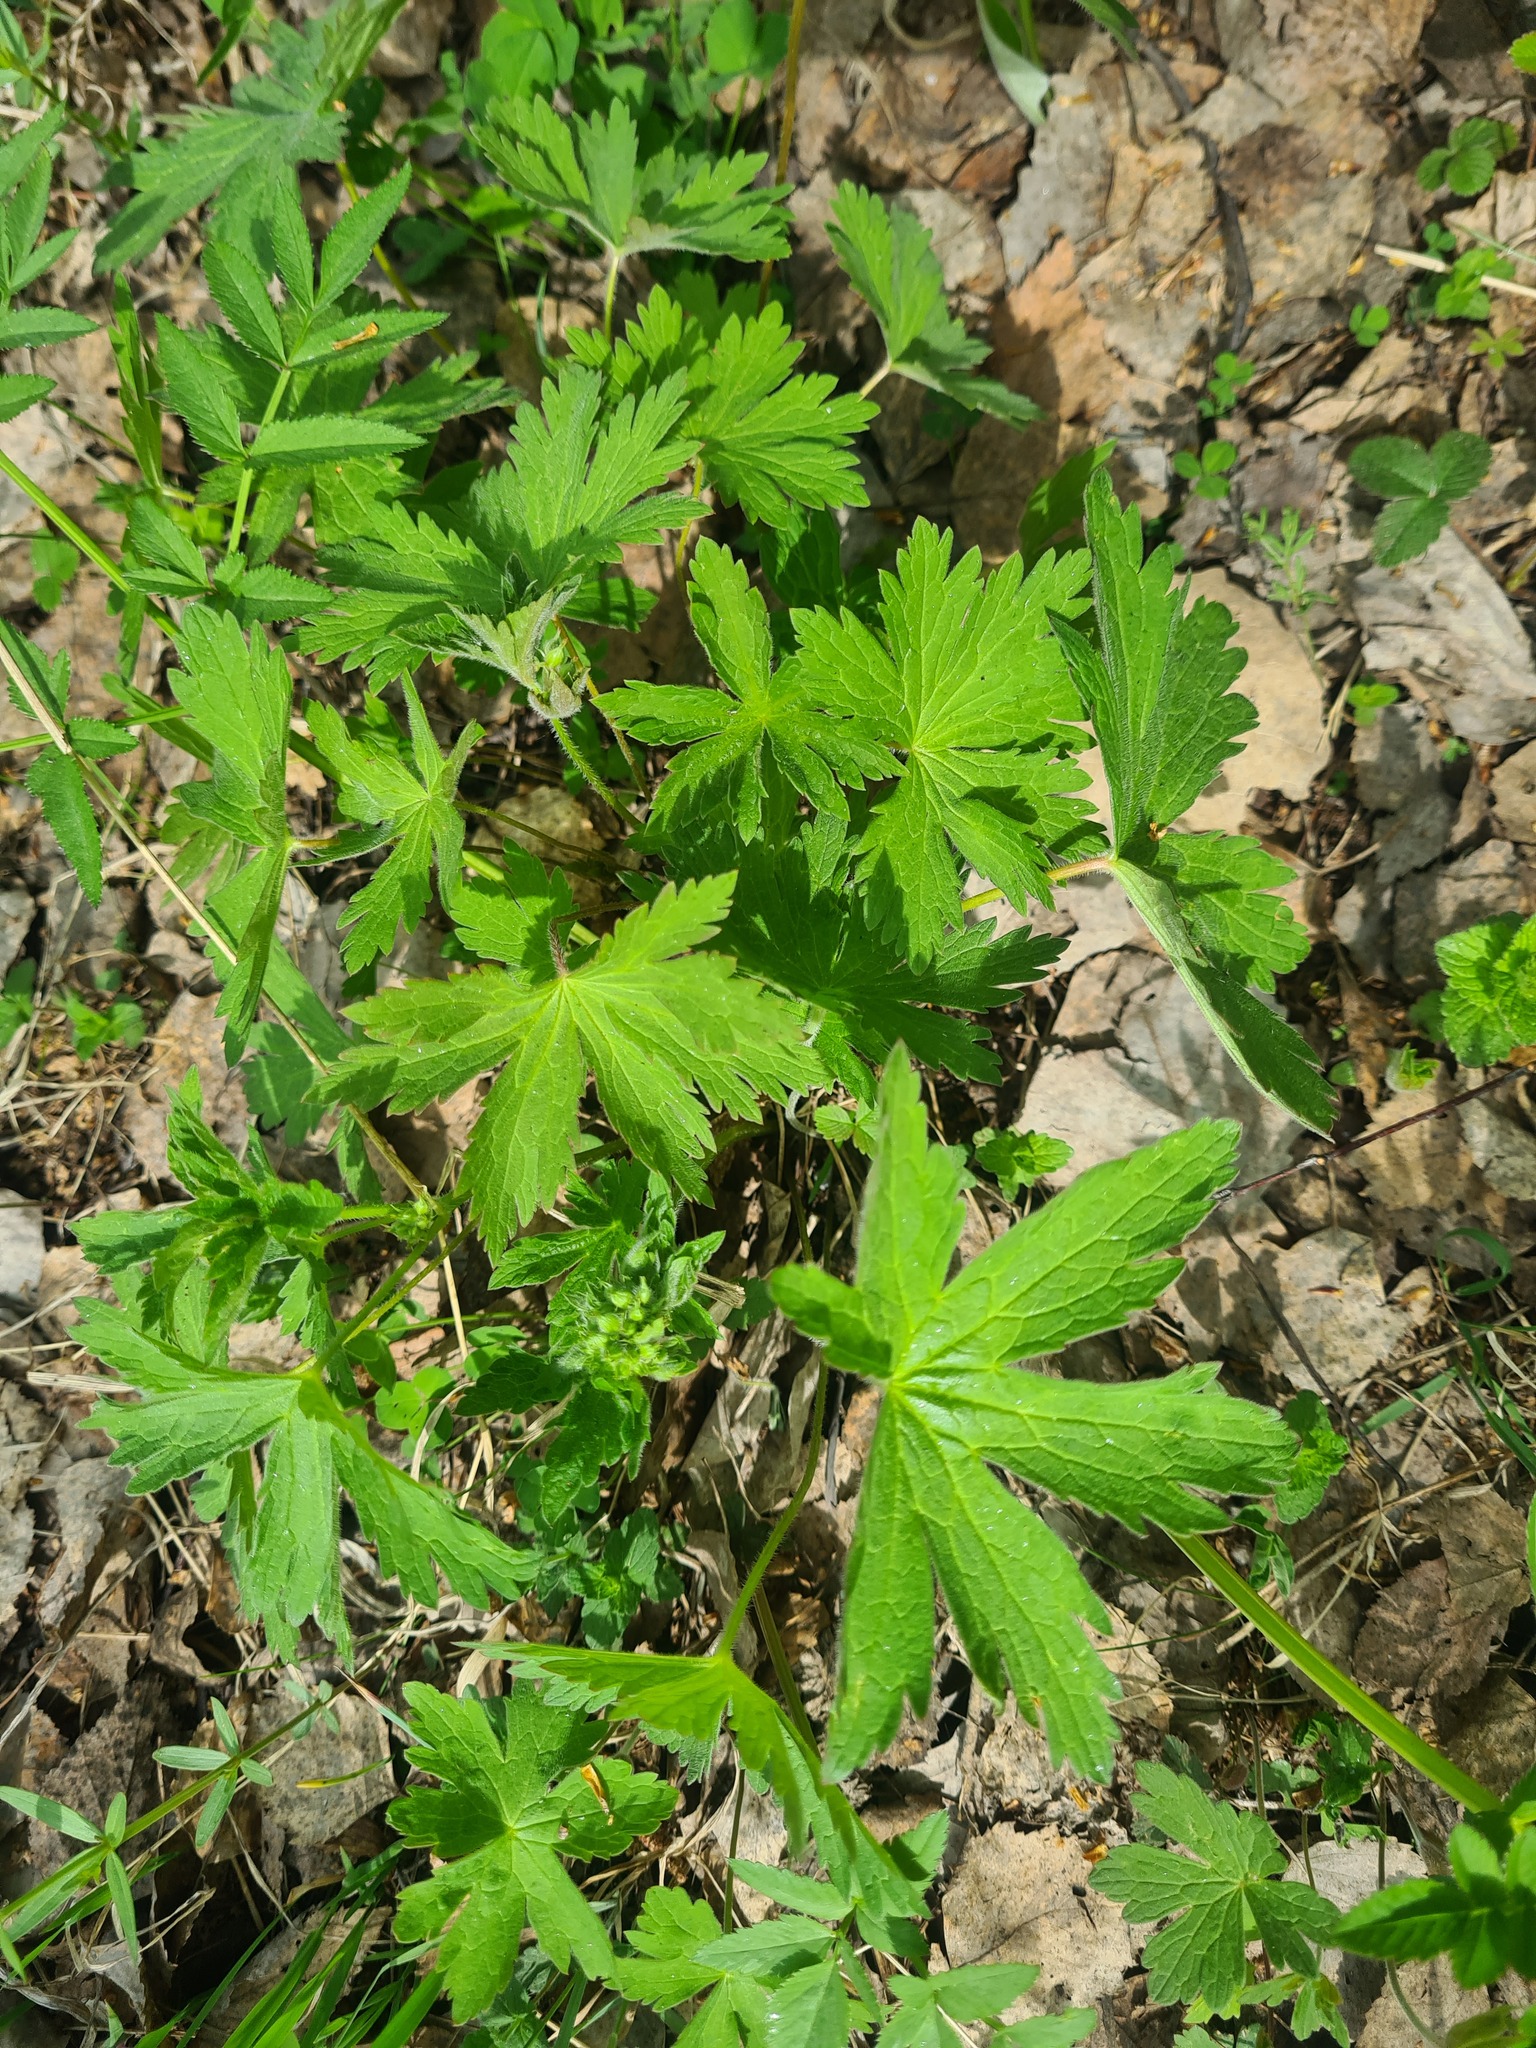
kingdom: Plantae
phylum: Tracheophyta
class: Magnoliopsida
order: Geraniales
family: Geraniaceae
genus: Geranium
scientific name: Geranium sylvaticum
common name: Wood crane's-bill
